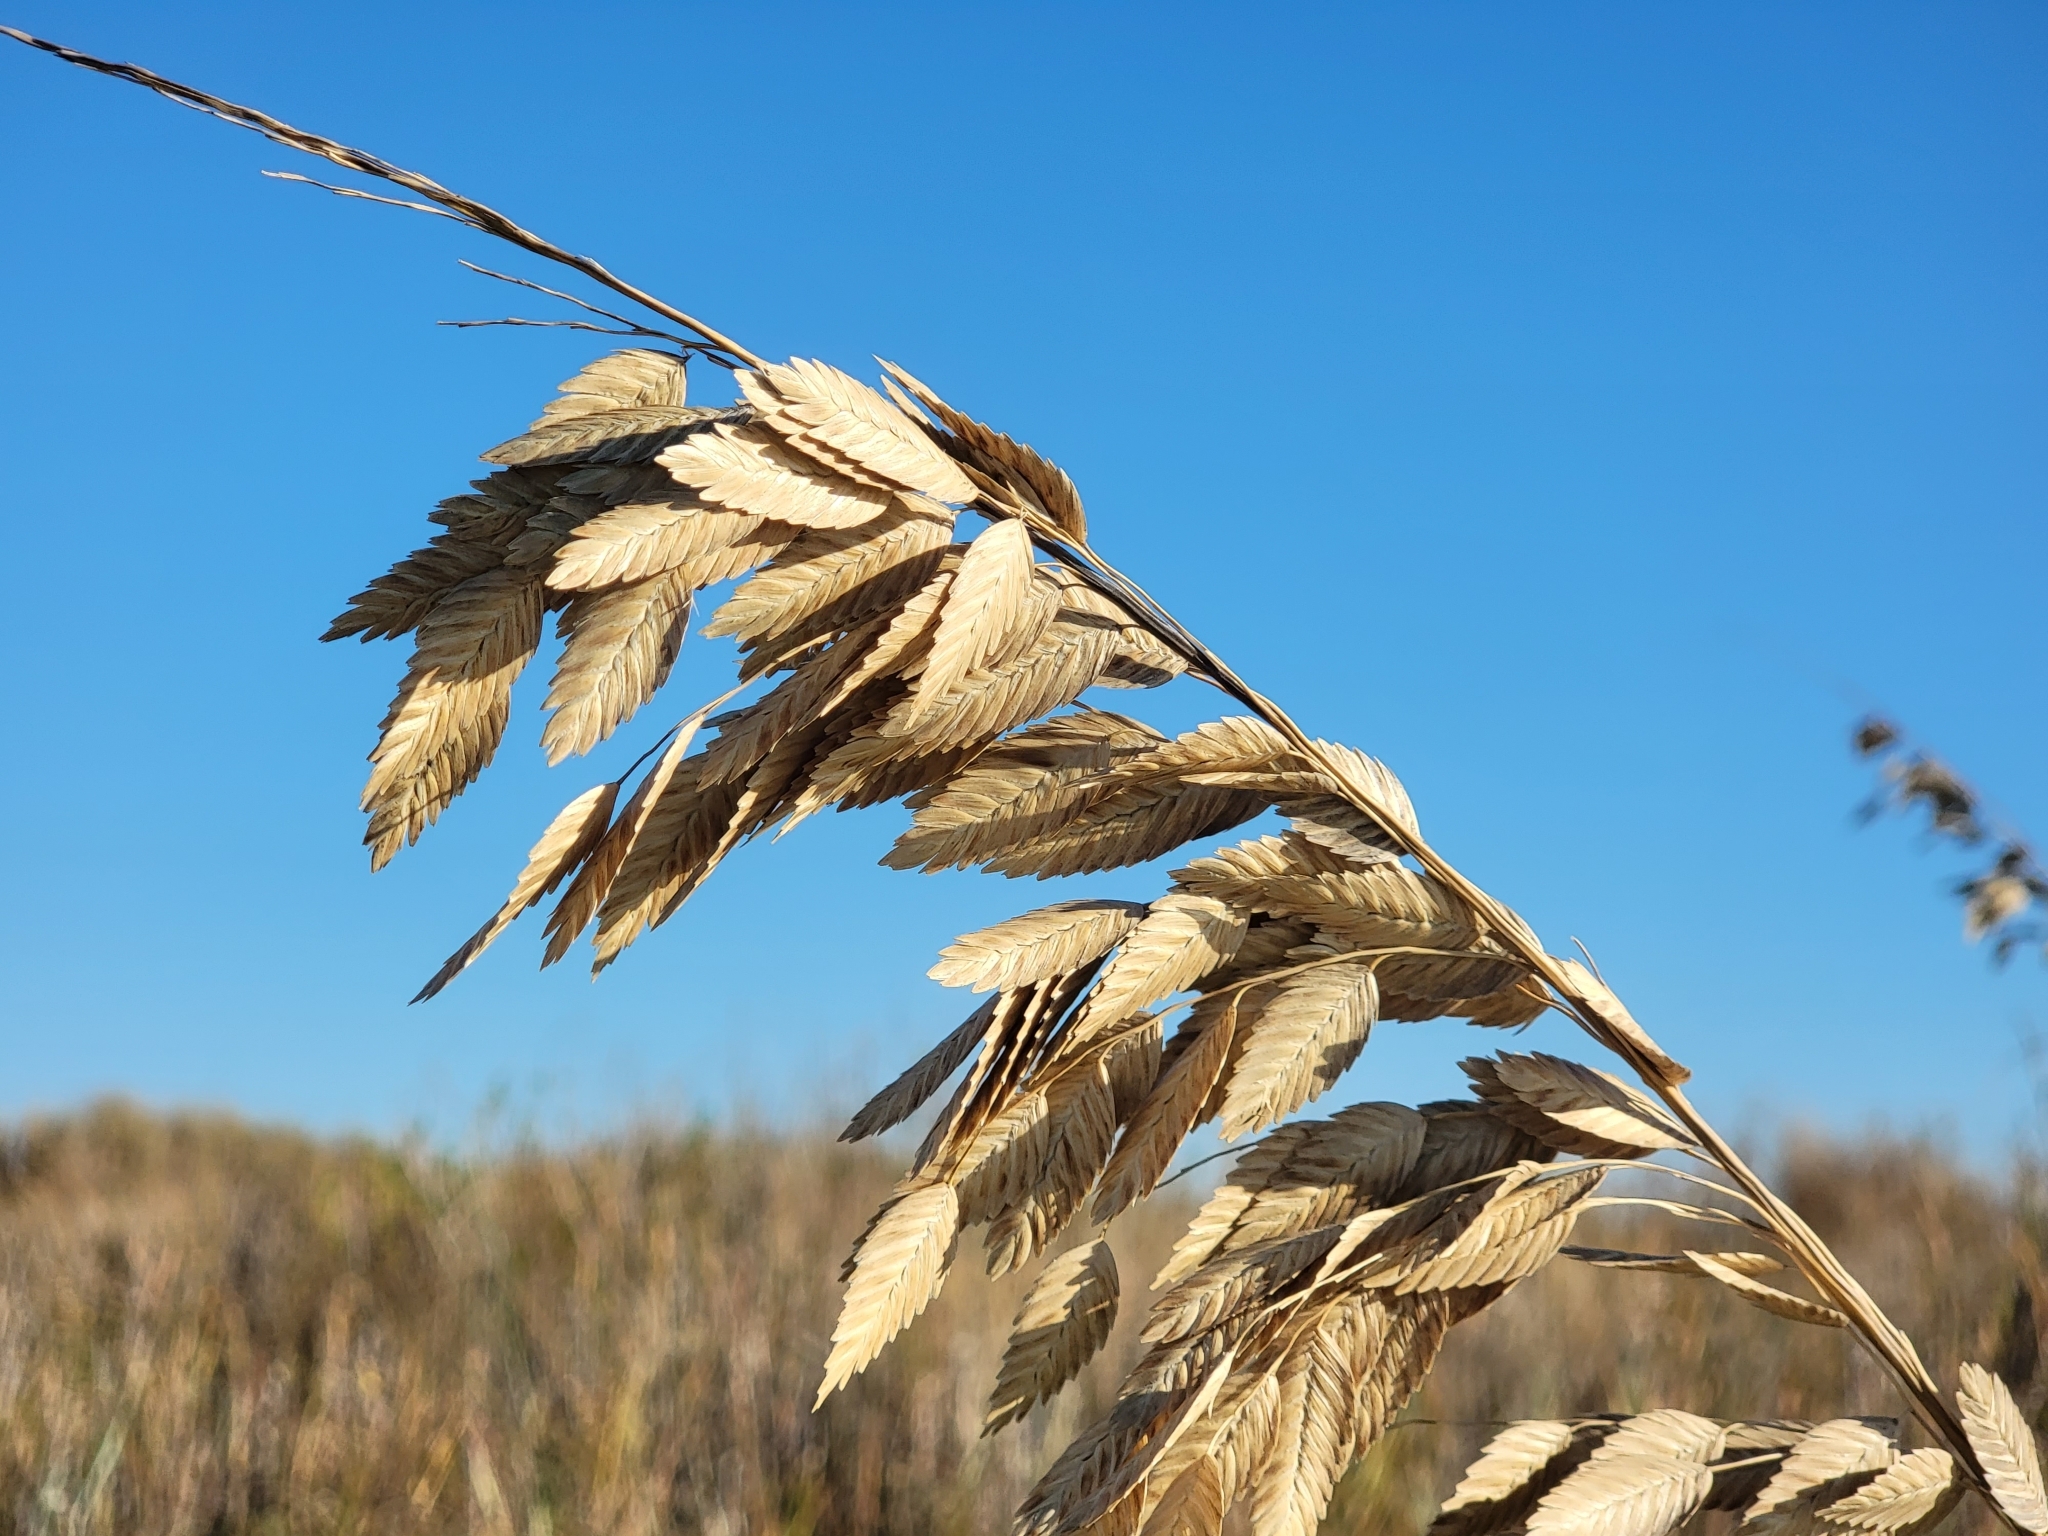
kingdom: Plantae
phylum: Tracheophyta
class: Liliopsida
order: Poales
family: Poaceae
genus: Uniola
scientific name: Uniola paniculata
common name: Seaside-oats
